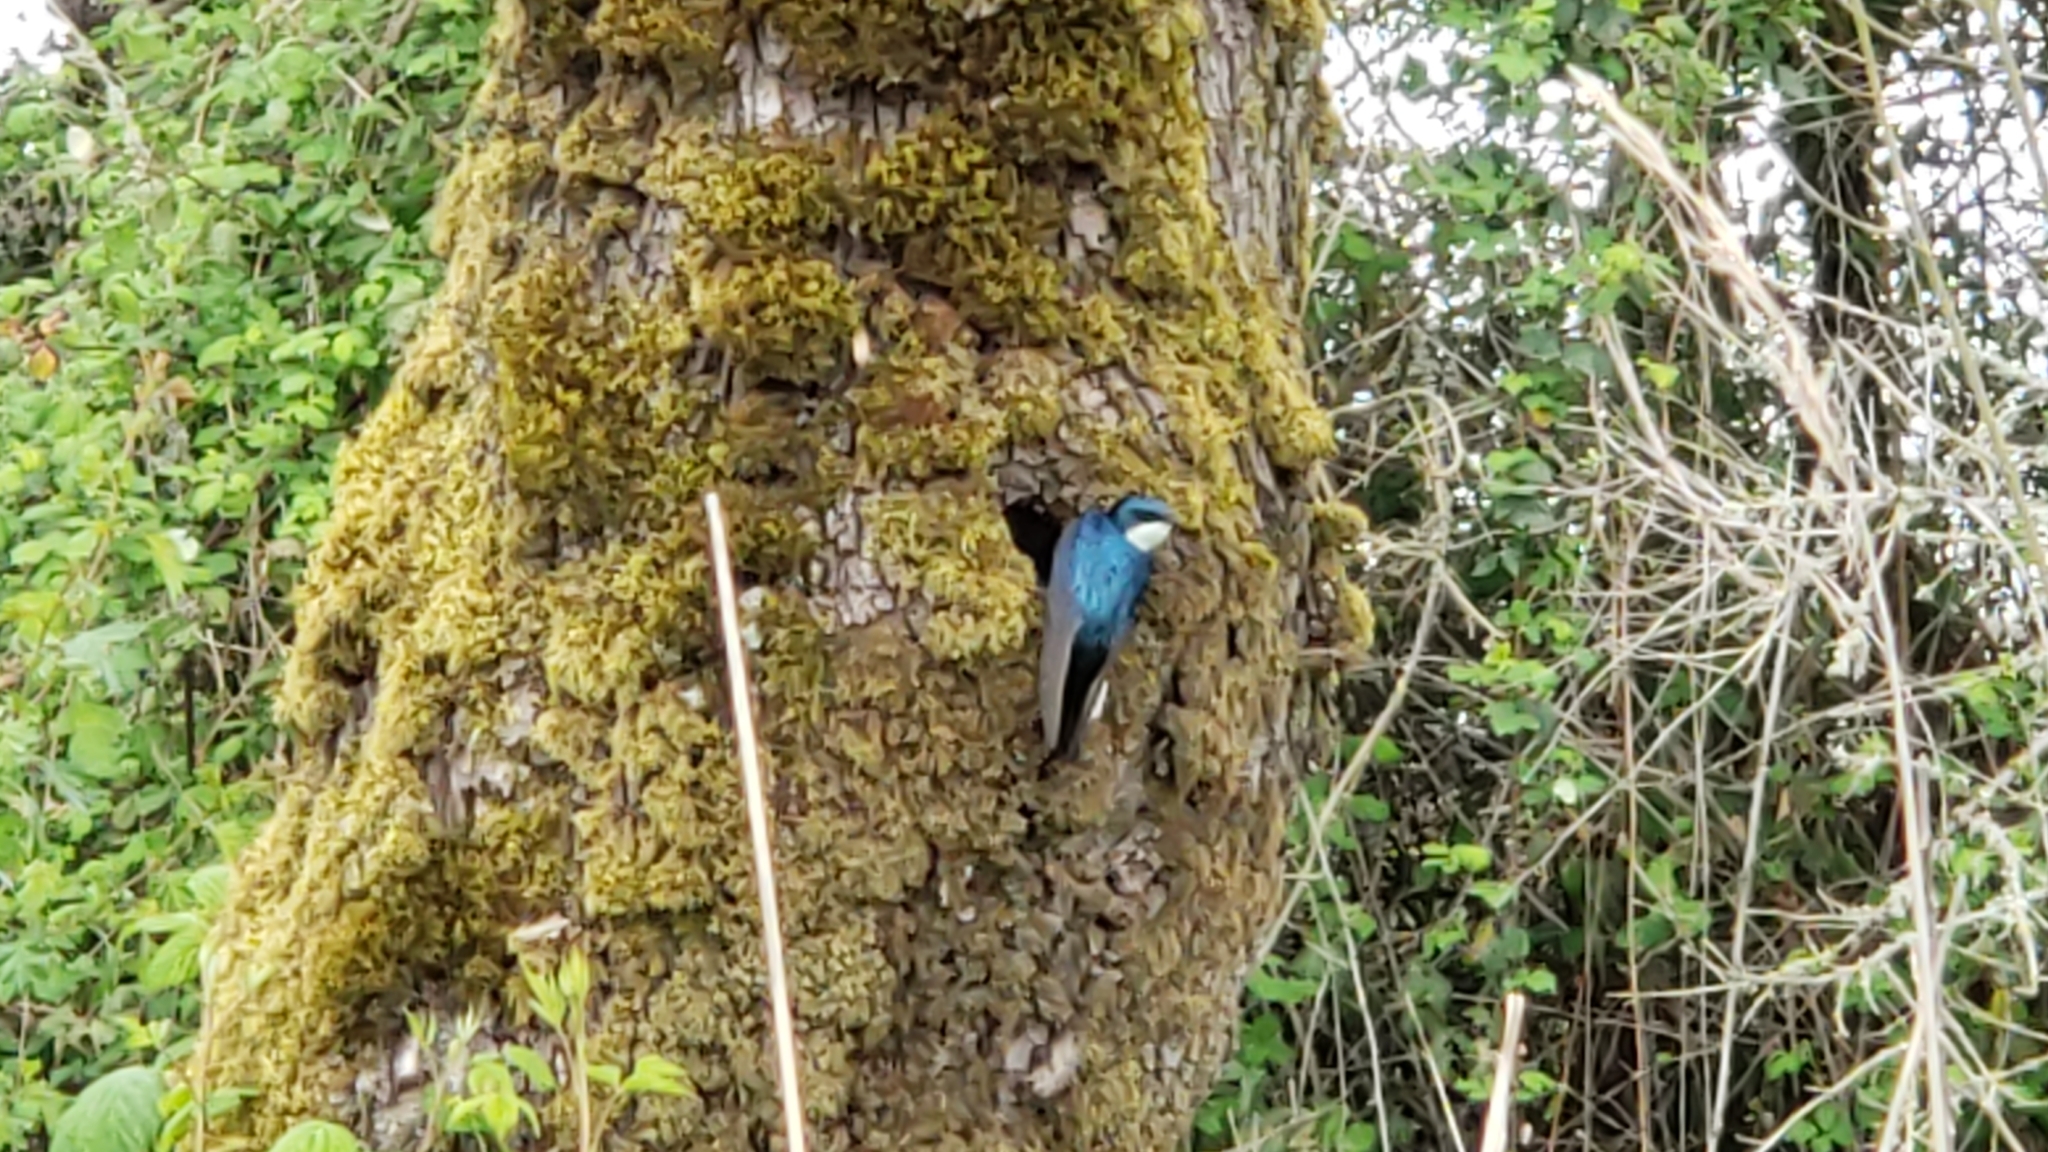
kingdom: Animalia
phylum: Chordata
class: Aves
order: Passeriformes
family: Hirundinidae
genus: Tachycineta
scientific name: Tachycineta bicolor
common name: Tree swallow
